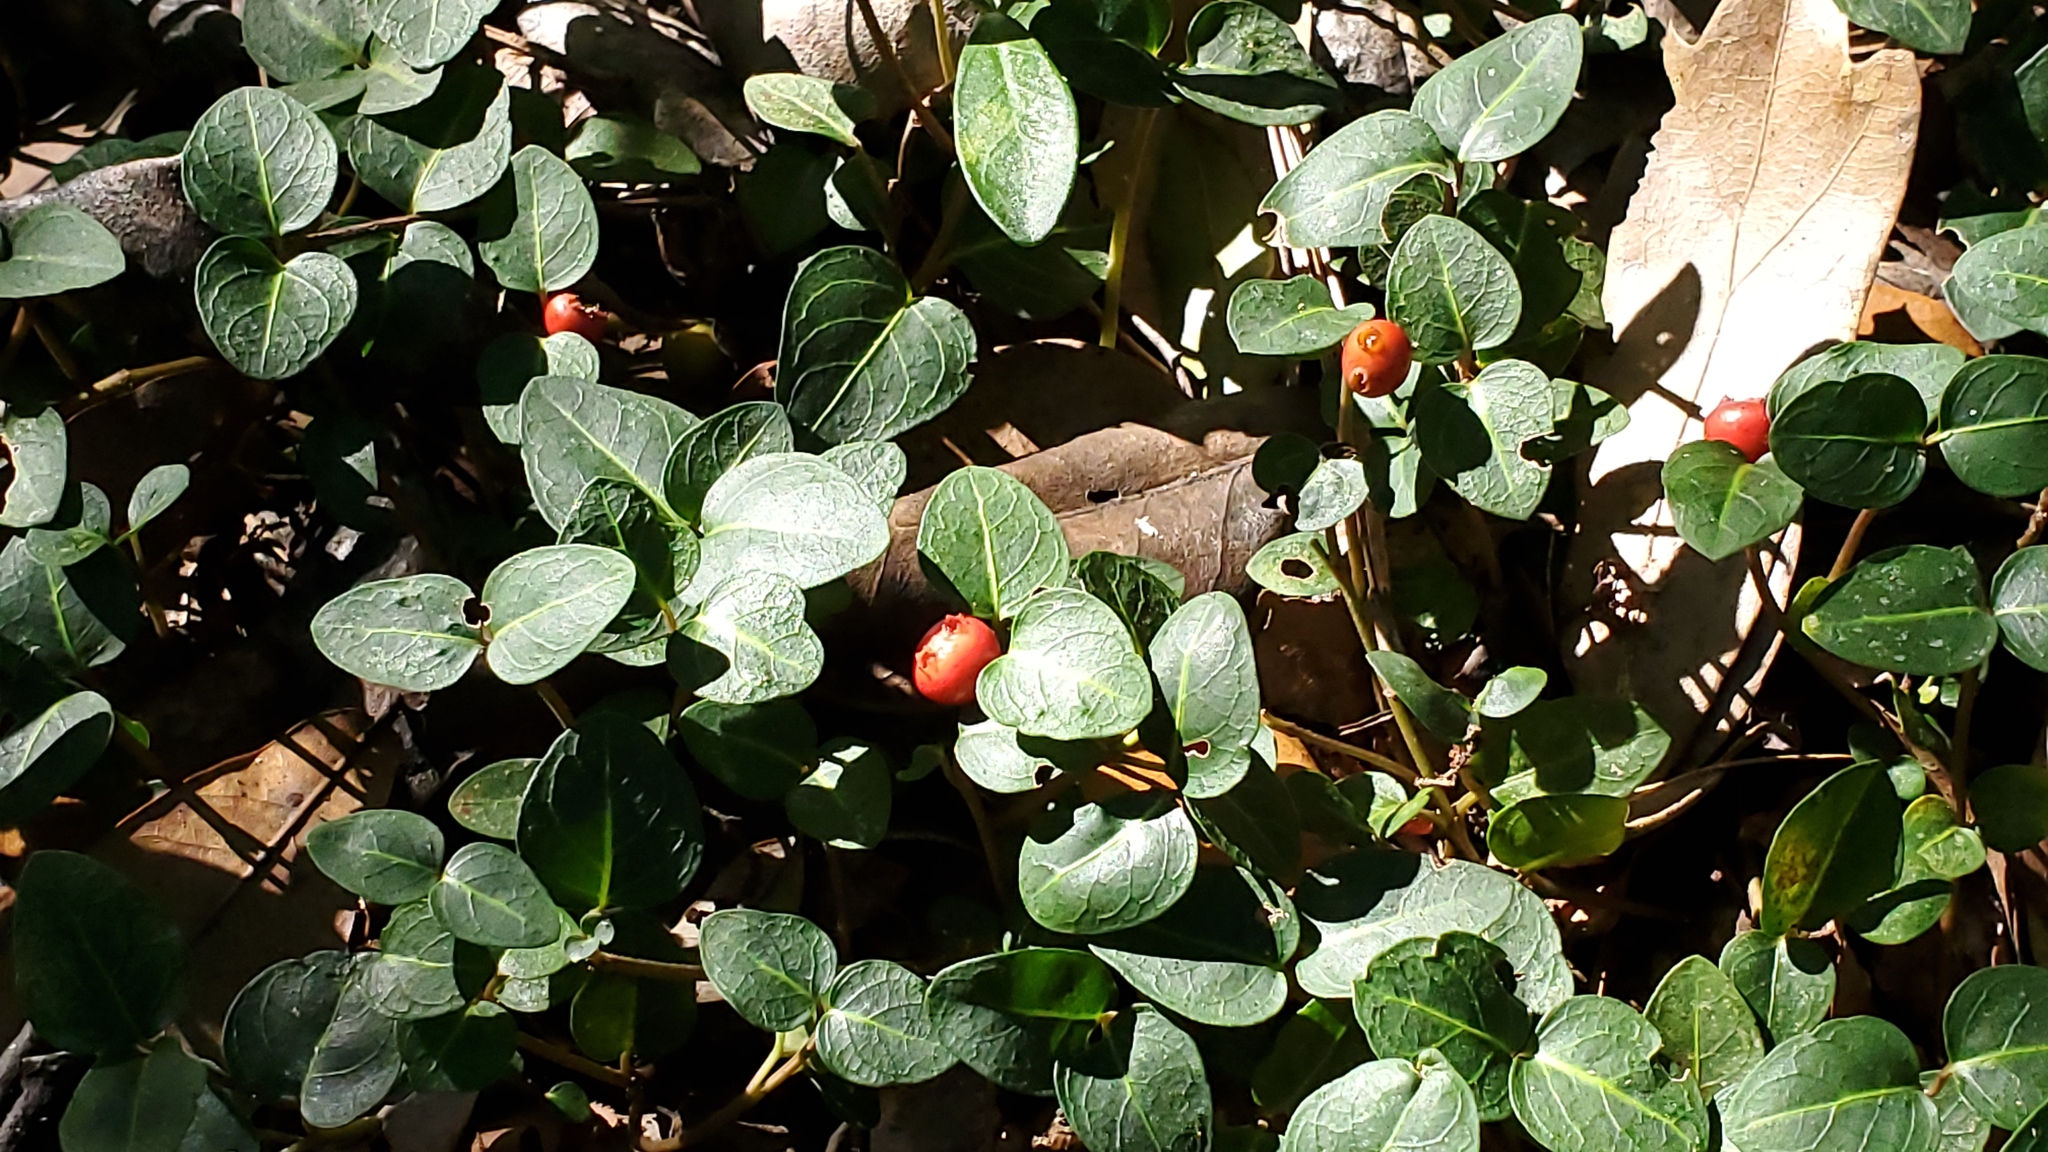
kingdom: Plantae
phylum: Tracheophyta
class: Magnoliopsida
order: Gentianales
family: Rubiaceae
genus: Mitchella
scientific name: Mitchella repens
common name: Partridge-berry
